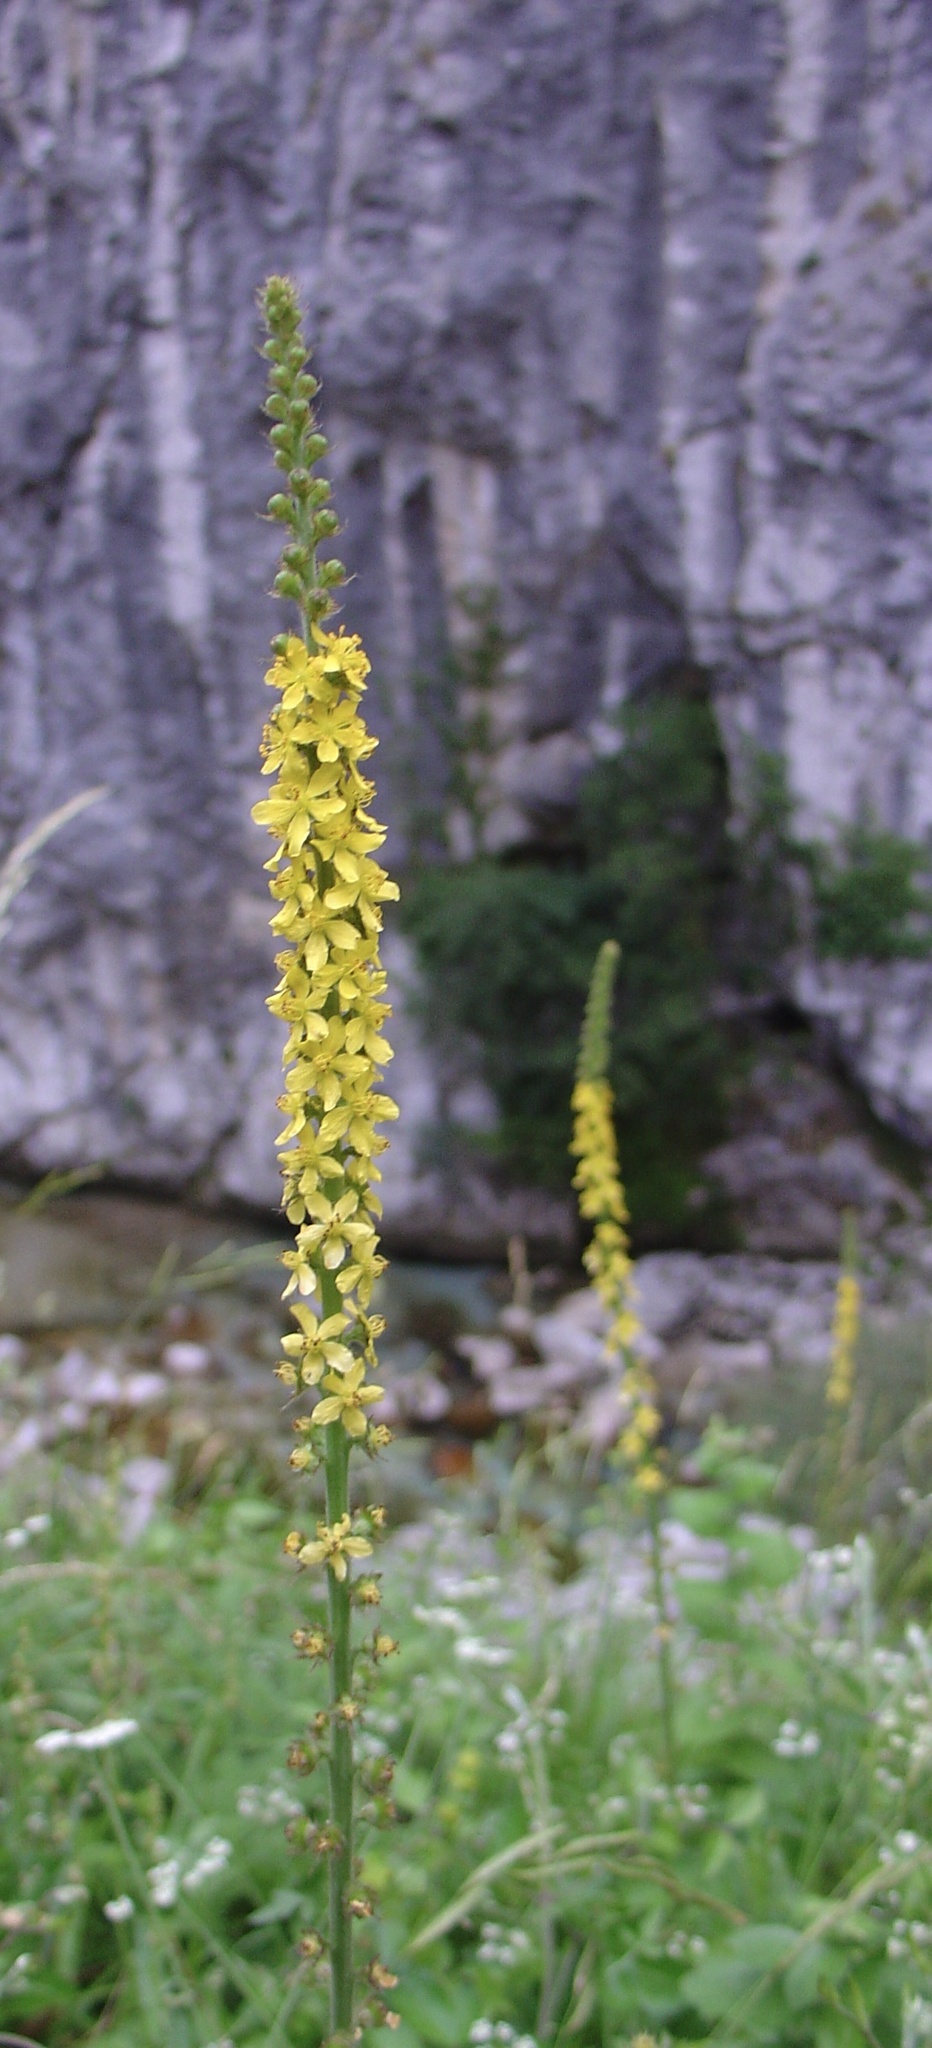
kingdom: Plantae
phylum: Tracheophyta
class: Magnoliopsida
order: Rosales
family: Rosaceae
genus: Agrimonia
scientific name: Agrimonia eupatoria
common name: Agrimony
